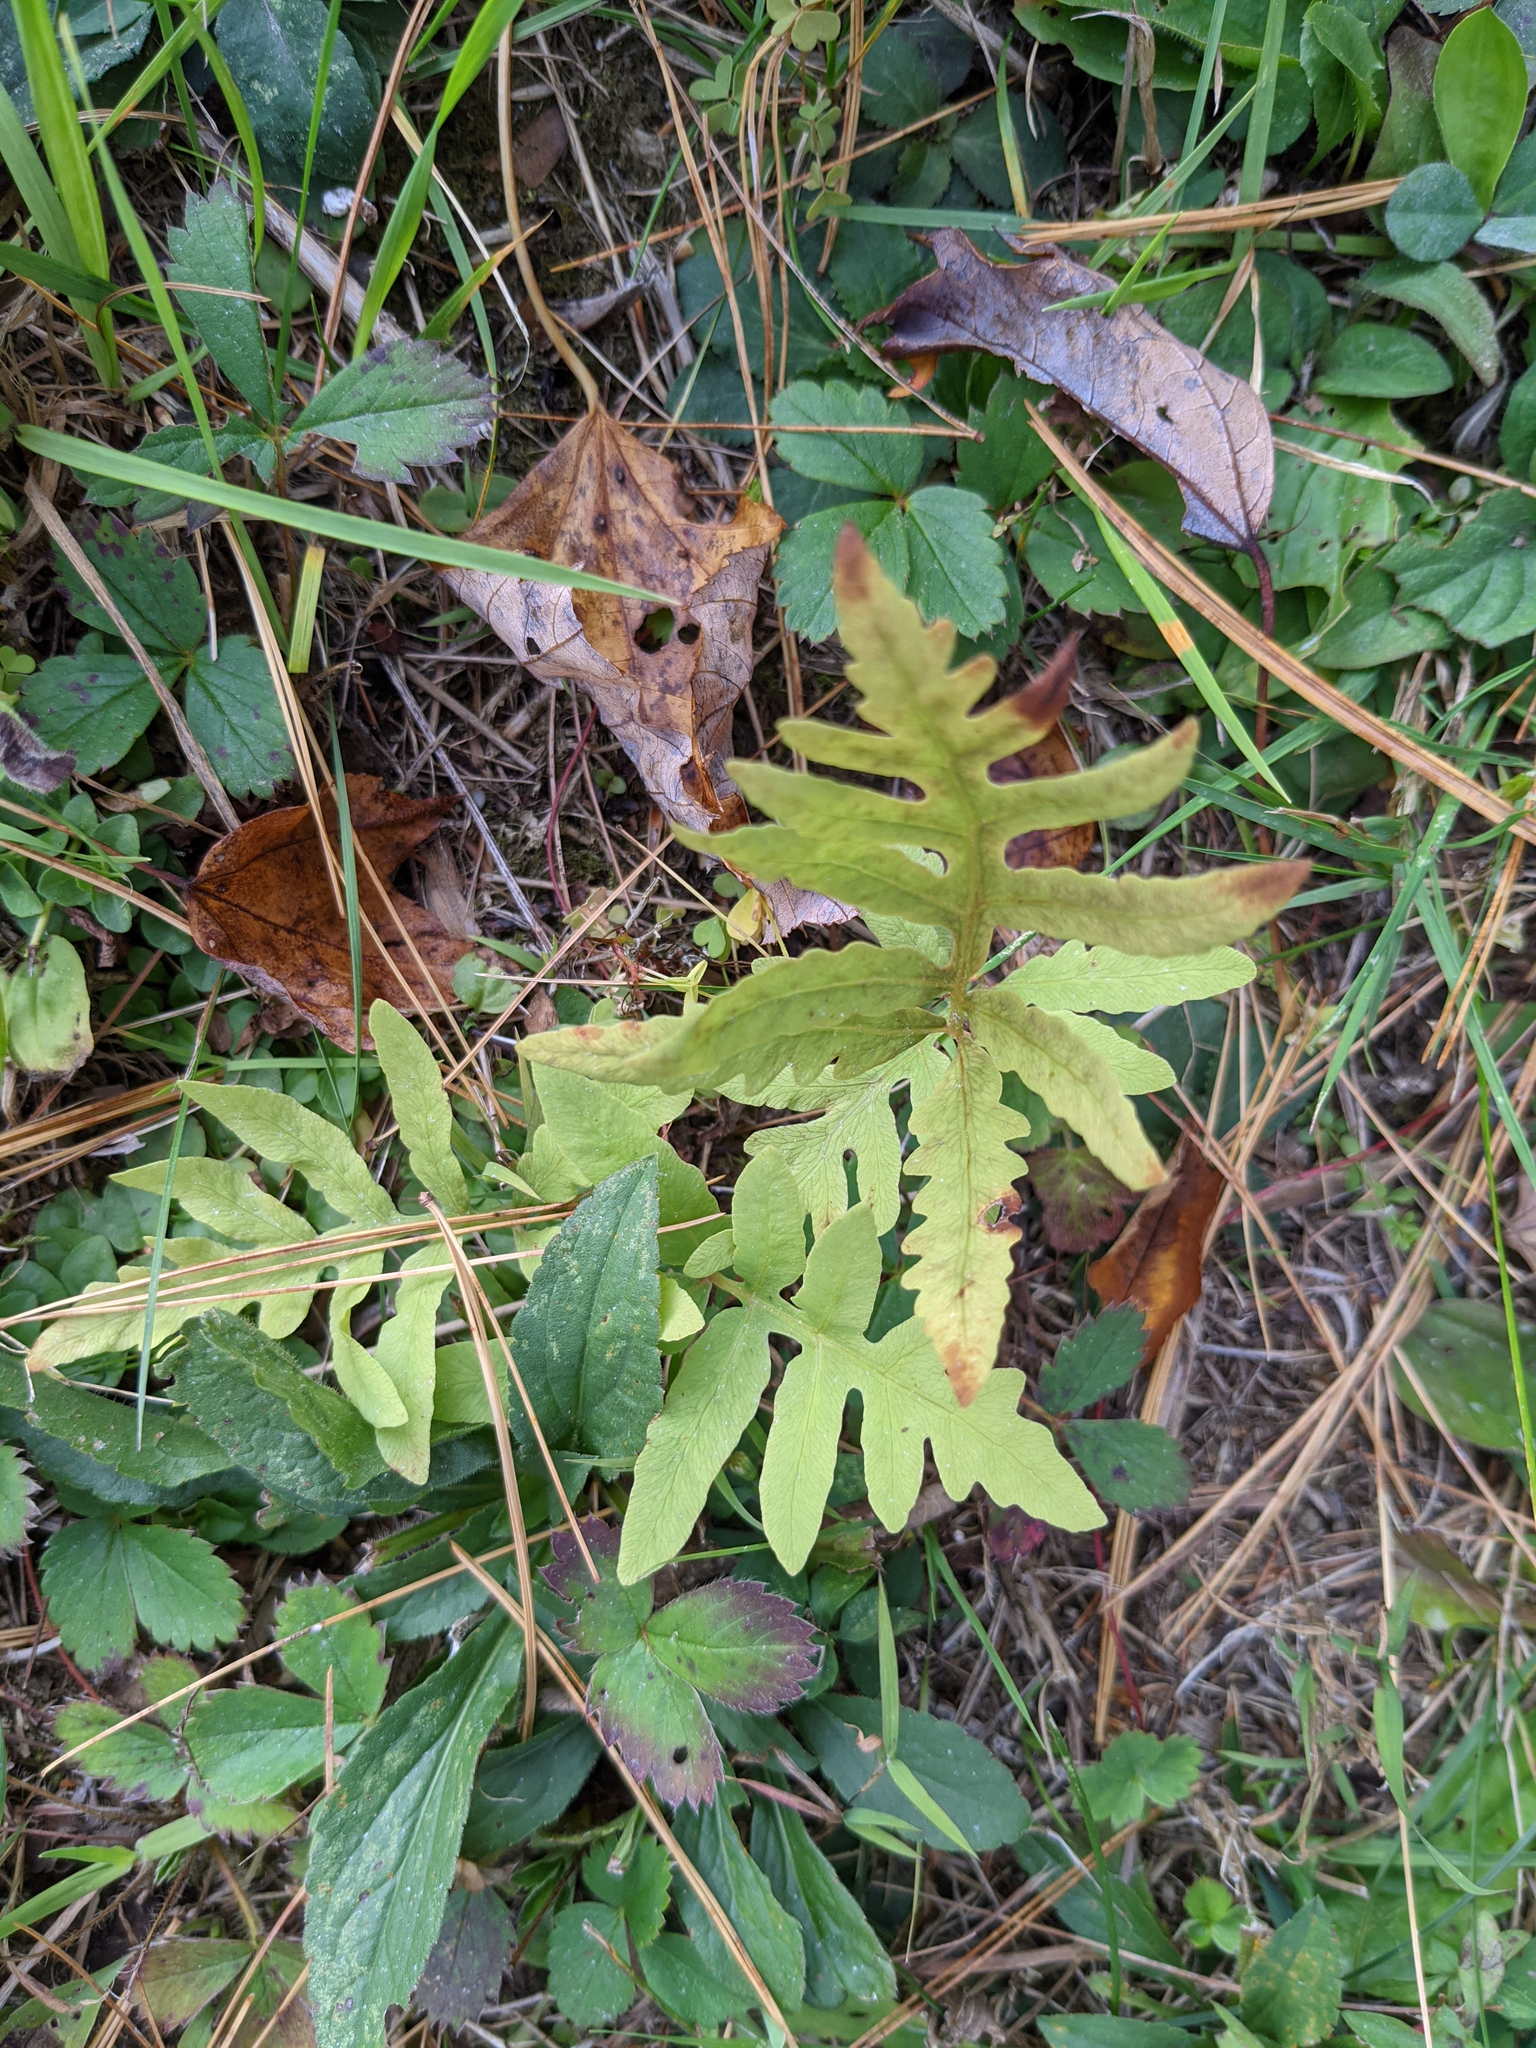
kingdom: Plantae
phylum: Tracheophyta
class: Polypodiopsida
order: Polypodiales
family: Onocleaceae
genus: Onoclea
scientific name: Onoclea sensibilis
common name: Sensitive fern
